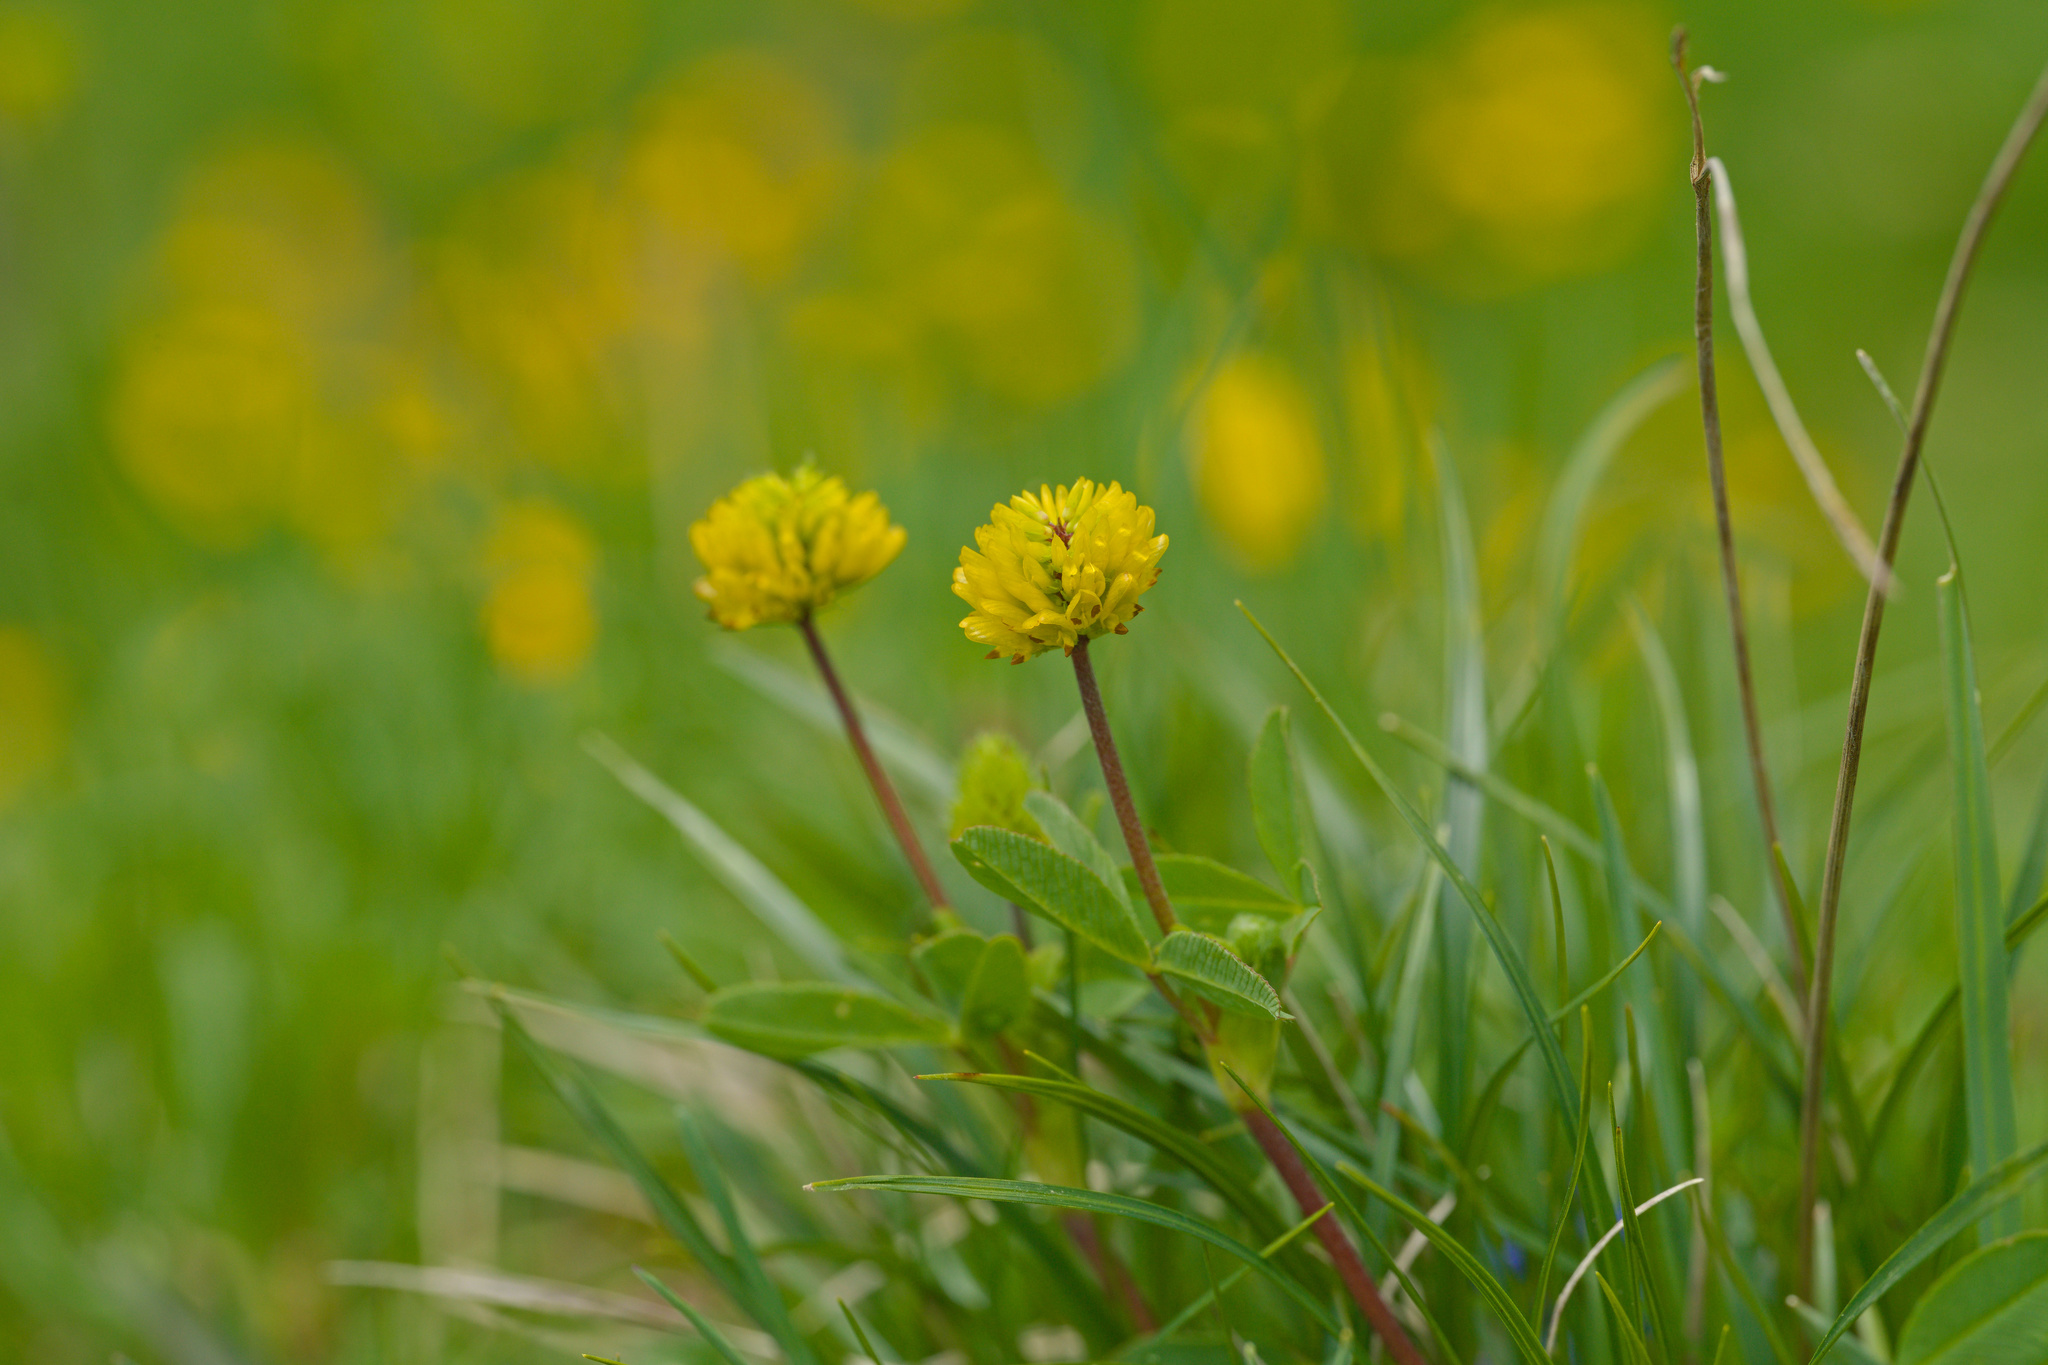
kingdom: Plantae
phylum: Tracheophyta
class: Magnoliopsida
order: Fabales
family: Fabaceae
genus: Trifolium
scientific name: Trifolium badium
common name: Brown clover
